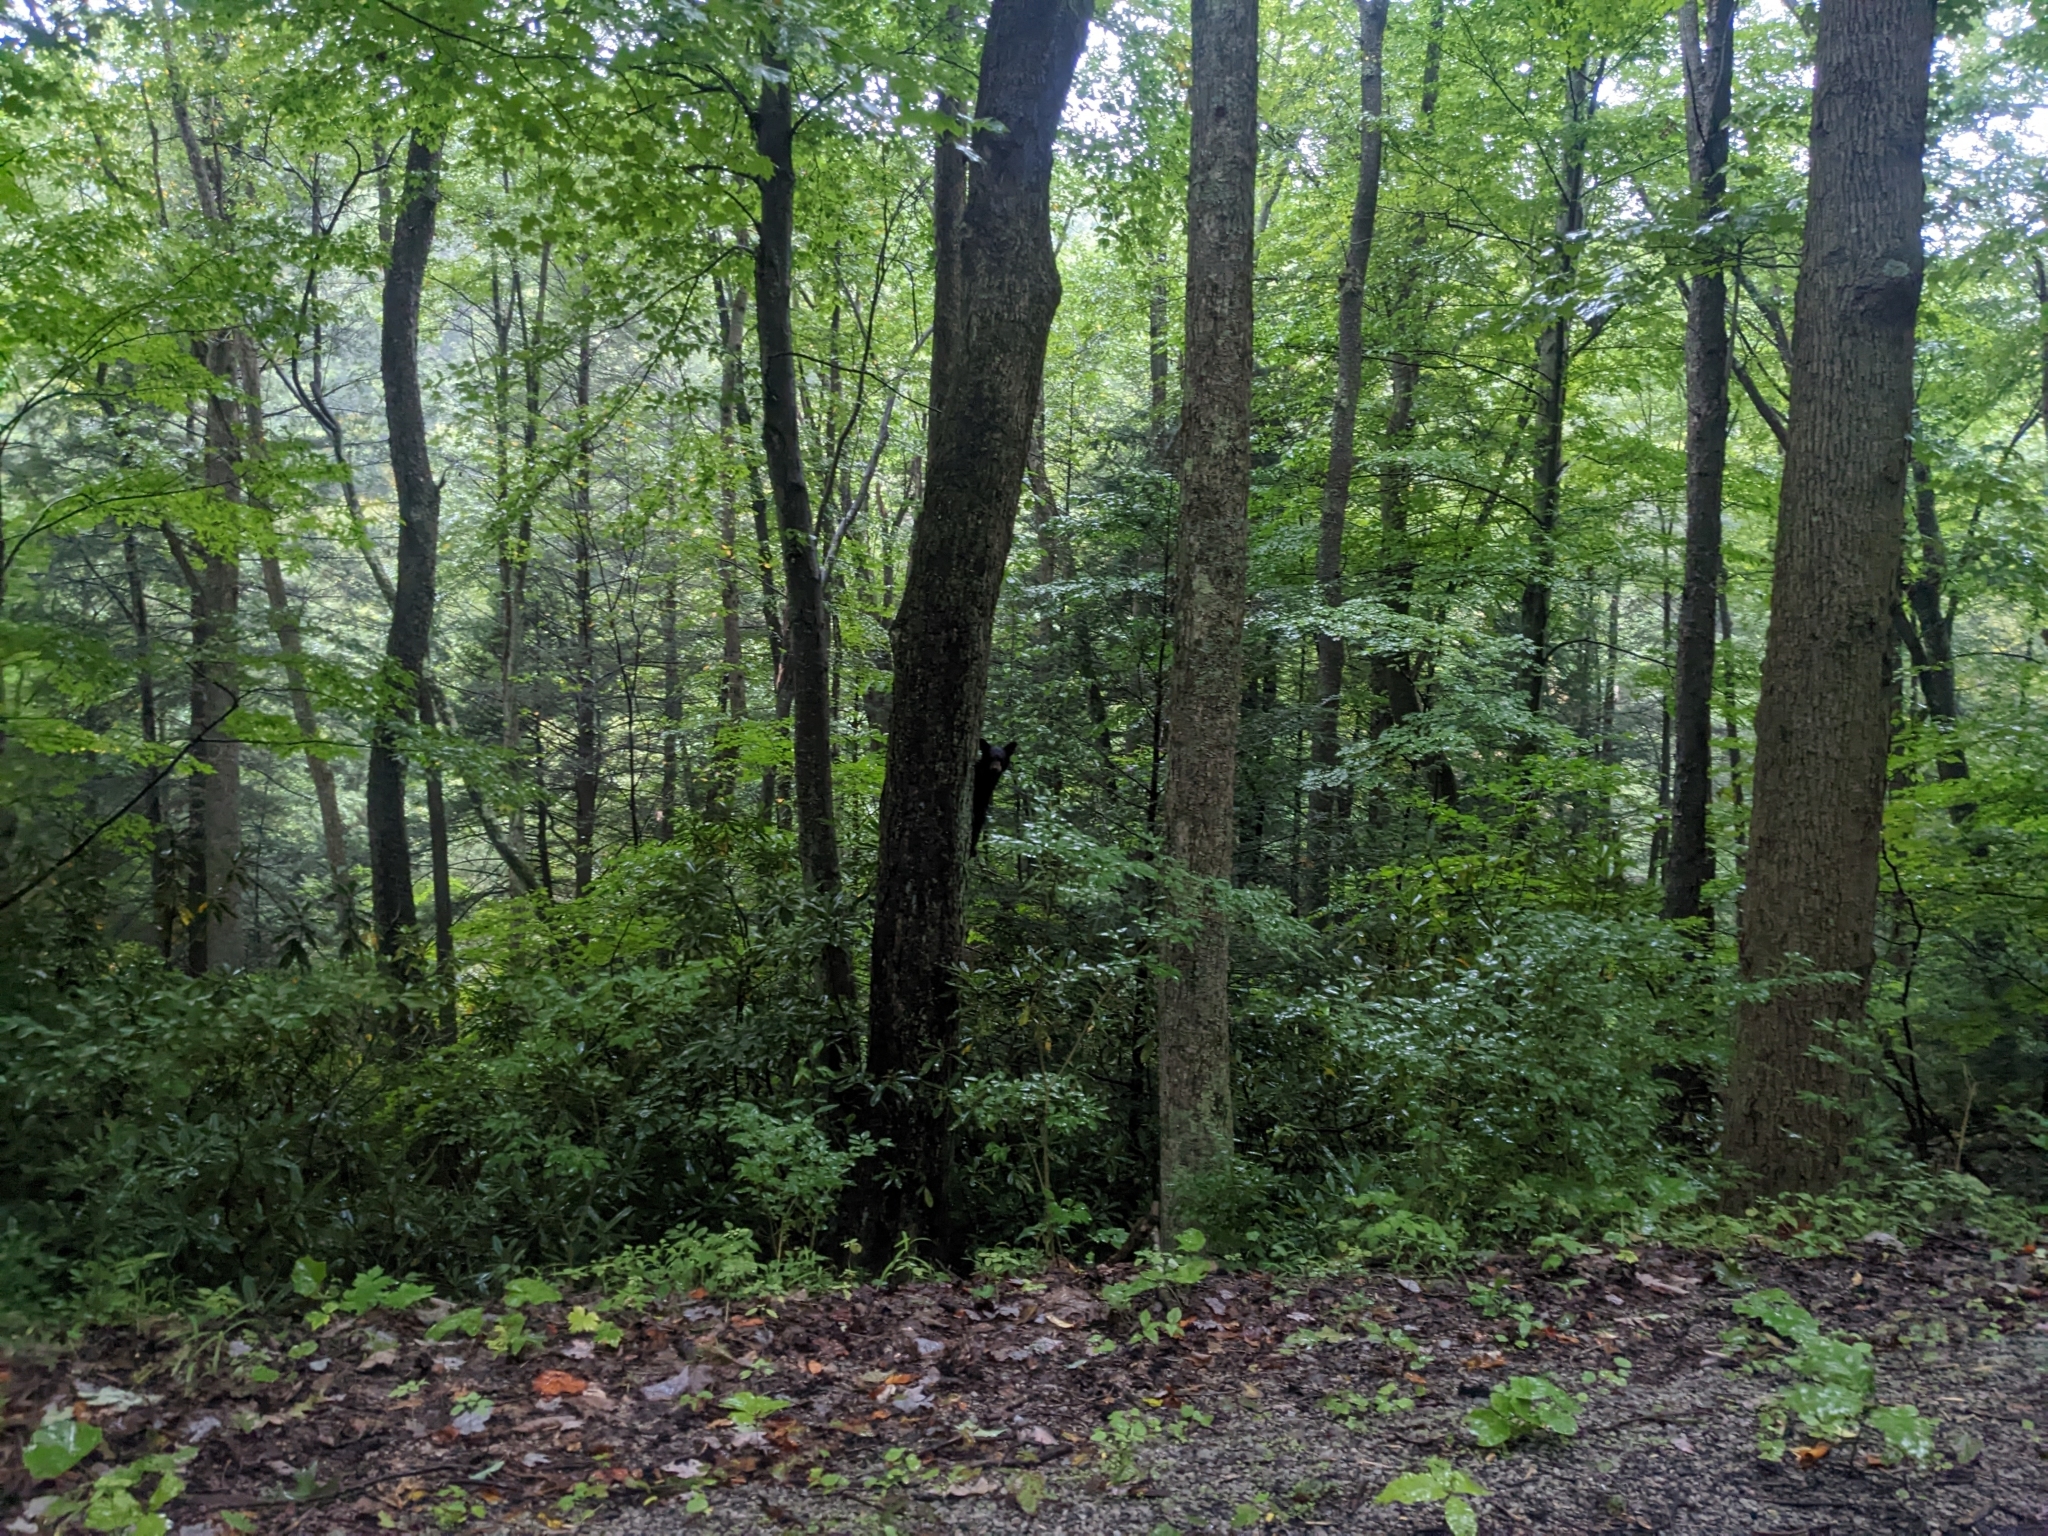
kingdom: Animalia
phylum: Chordata
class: Mammalia
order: Carnivora
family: Ursidae
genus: Ursus
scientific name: Ursus americanus
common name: American black bear
